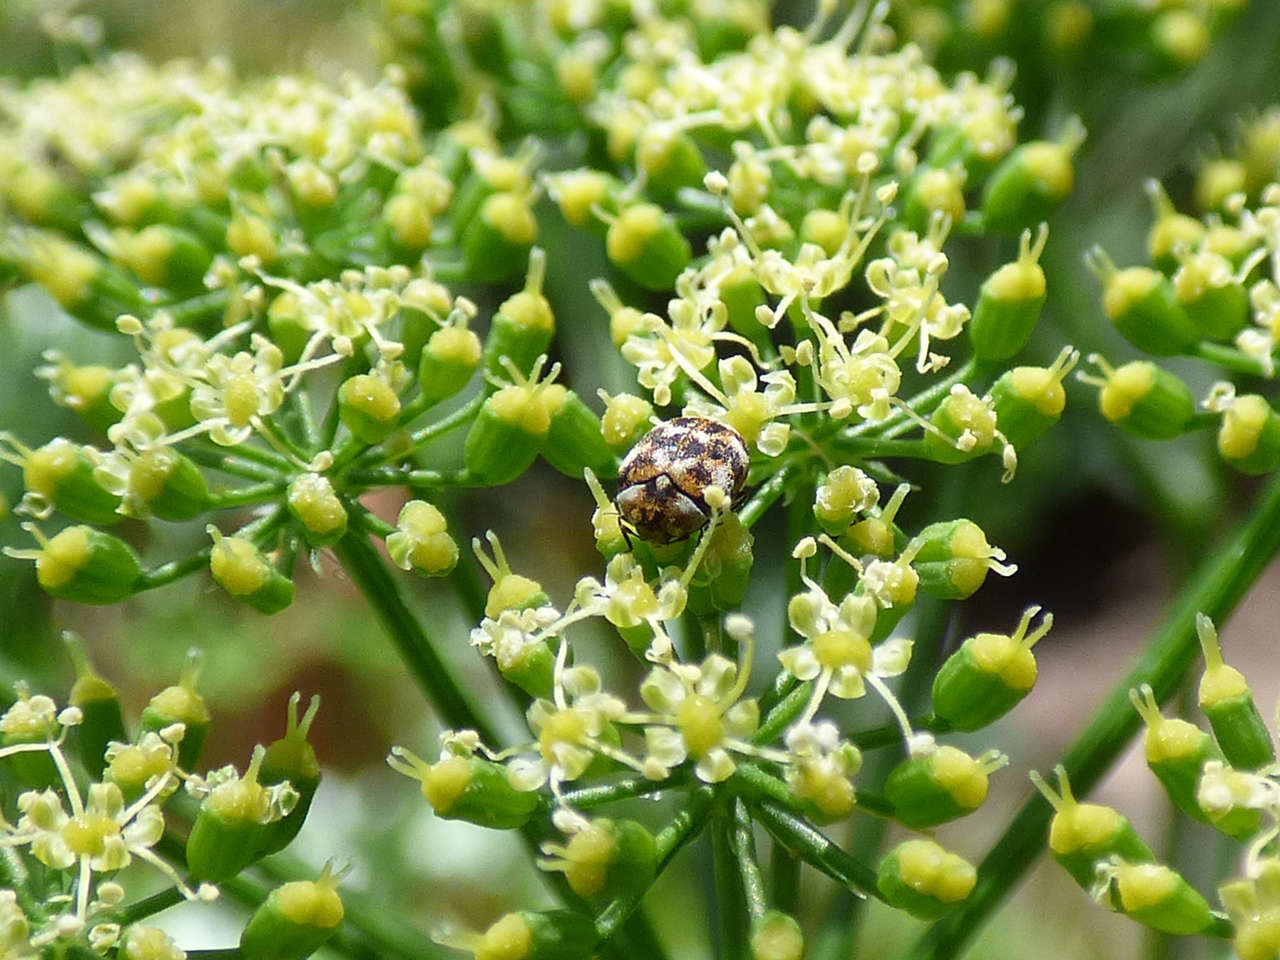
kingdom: Animalia
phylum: Arthropoda
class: Insecta
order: Coleoptera
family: Dermestidae
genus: Anthrenus
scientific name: Anthrenus verbasci
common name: Varied carpet beetle
